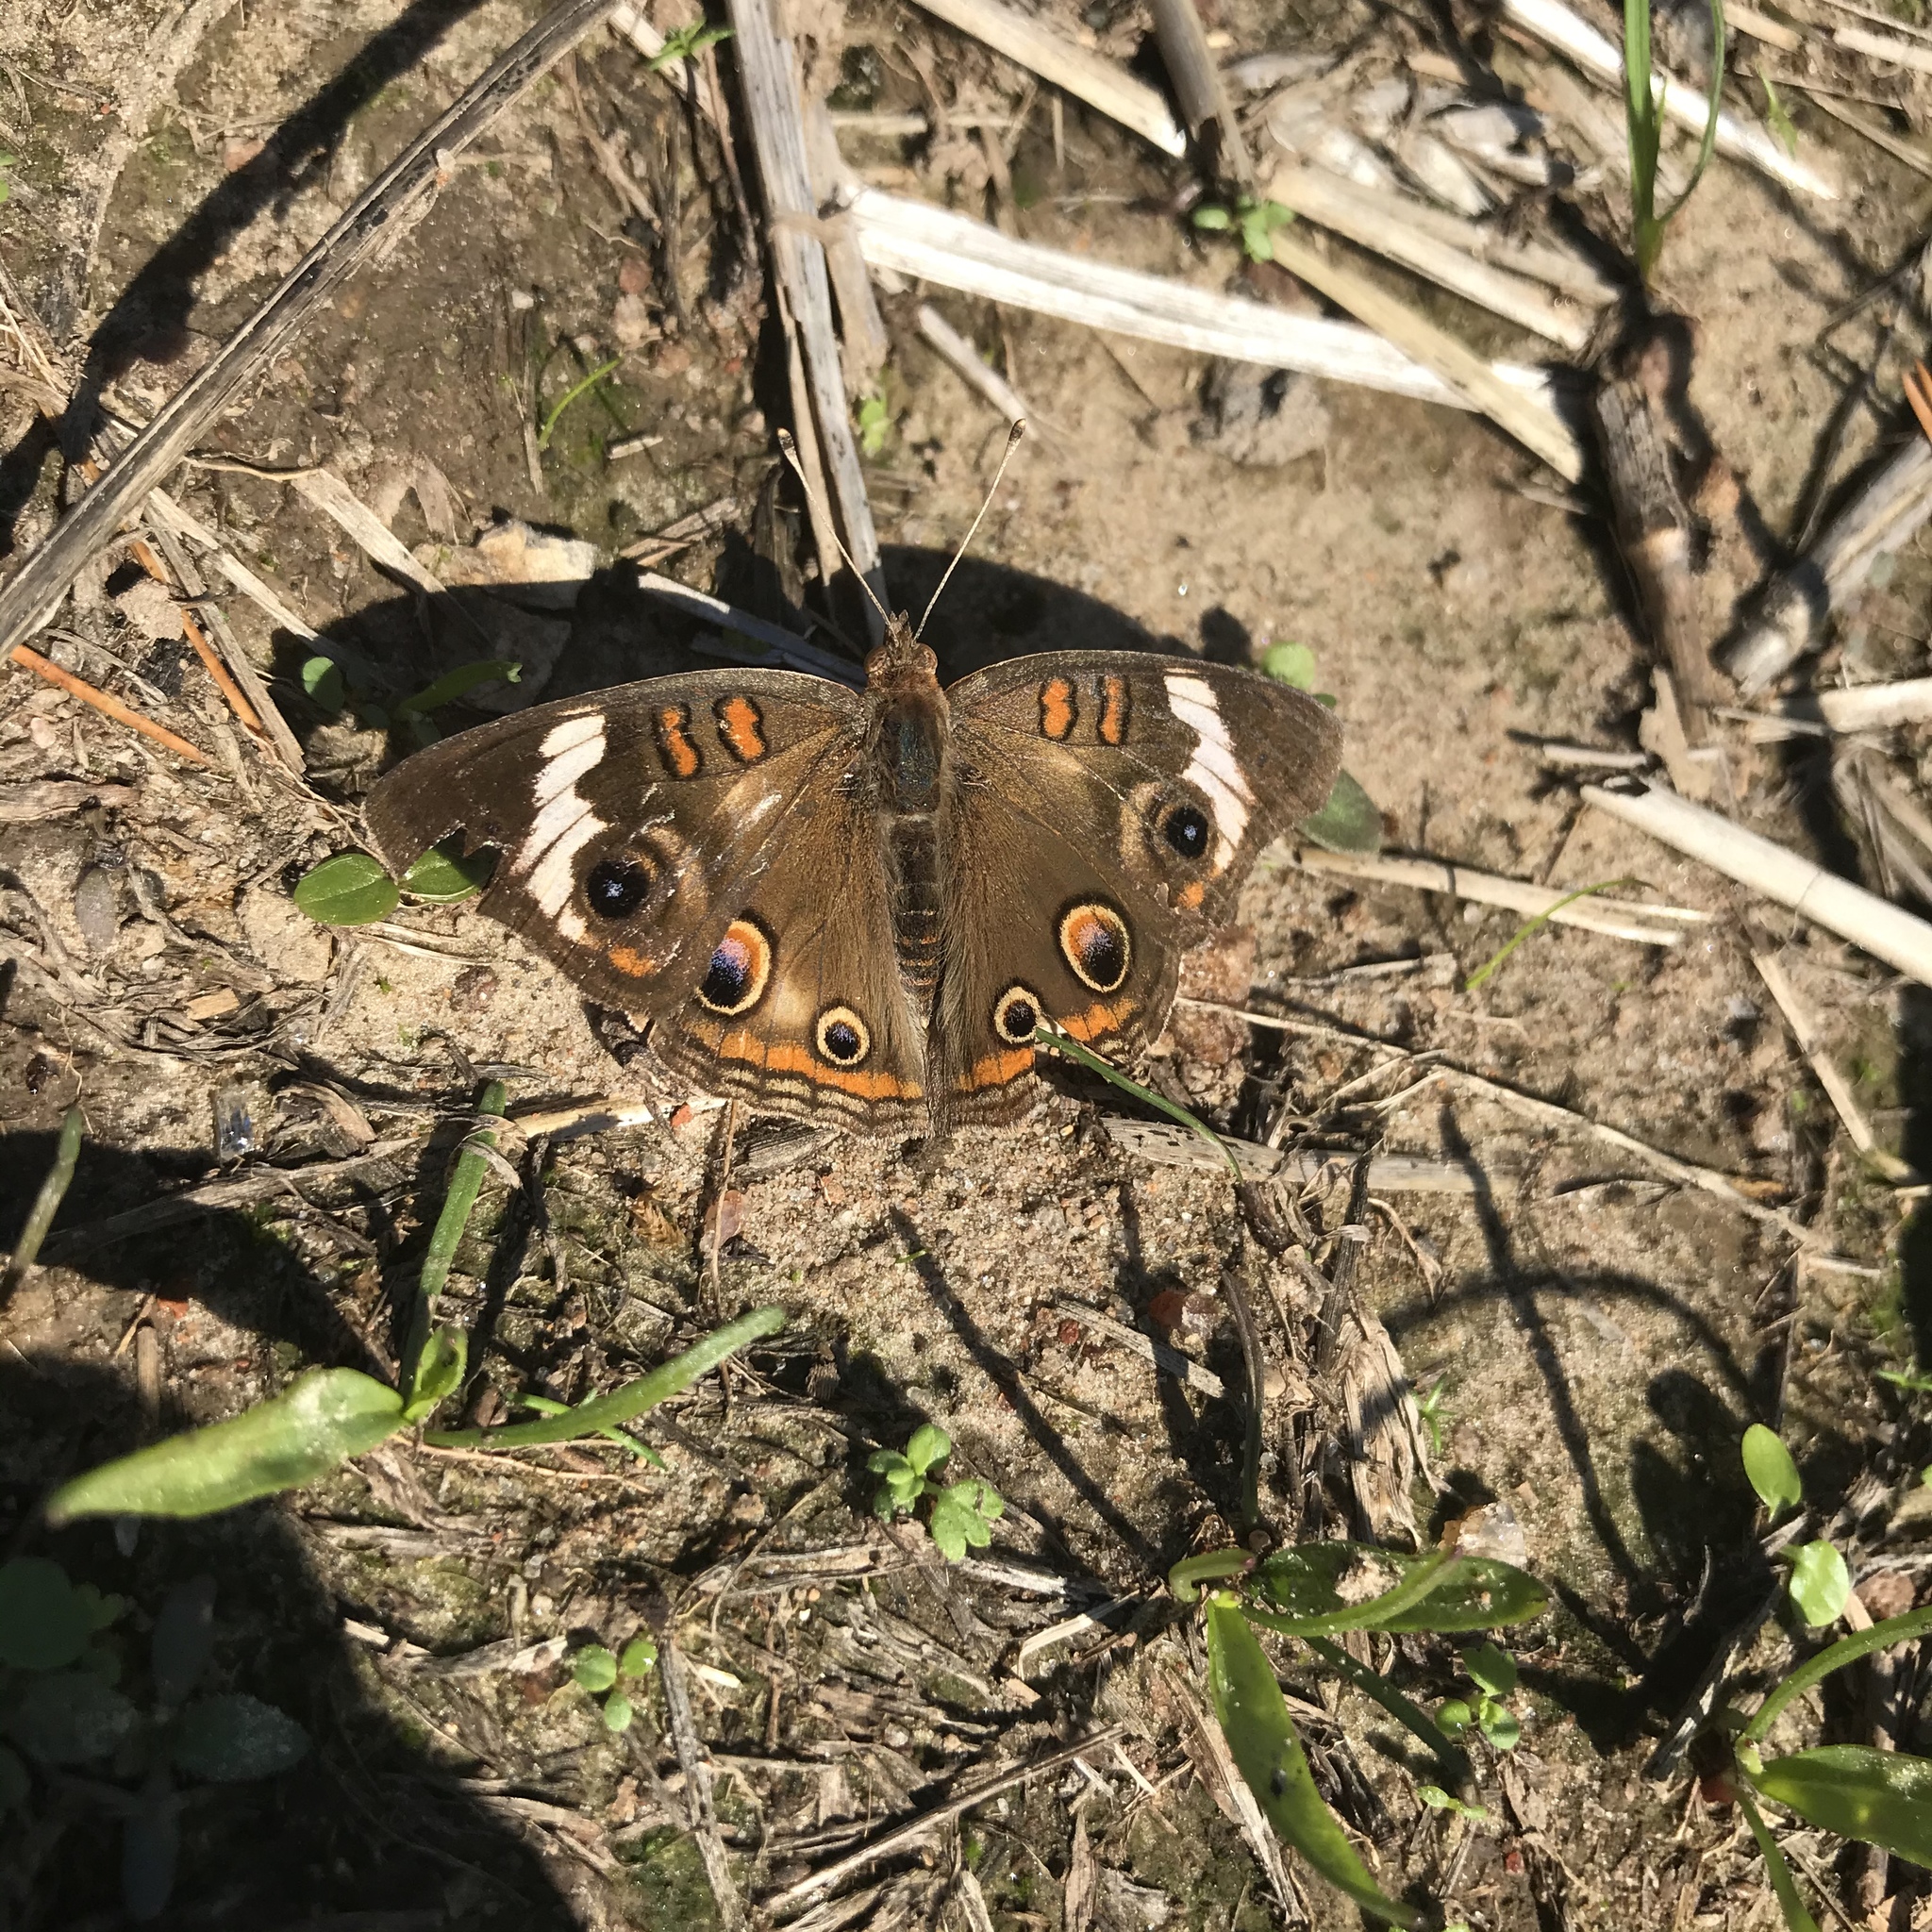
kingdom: Animalia
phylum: Arthropoda
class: Insecta
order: Lepidoptera
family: Nymphalidae
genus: Junonia
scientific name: Junonia coenia
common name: Common buckeye
